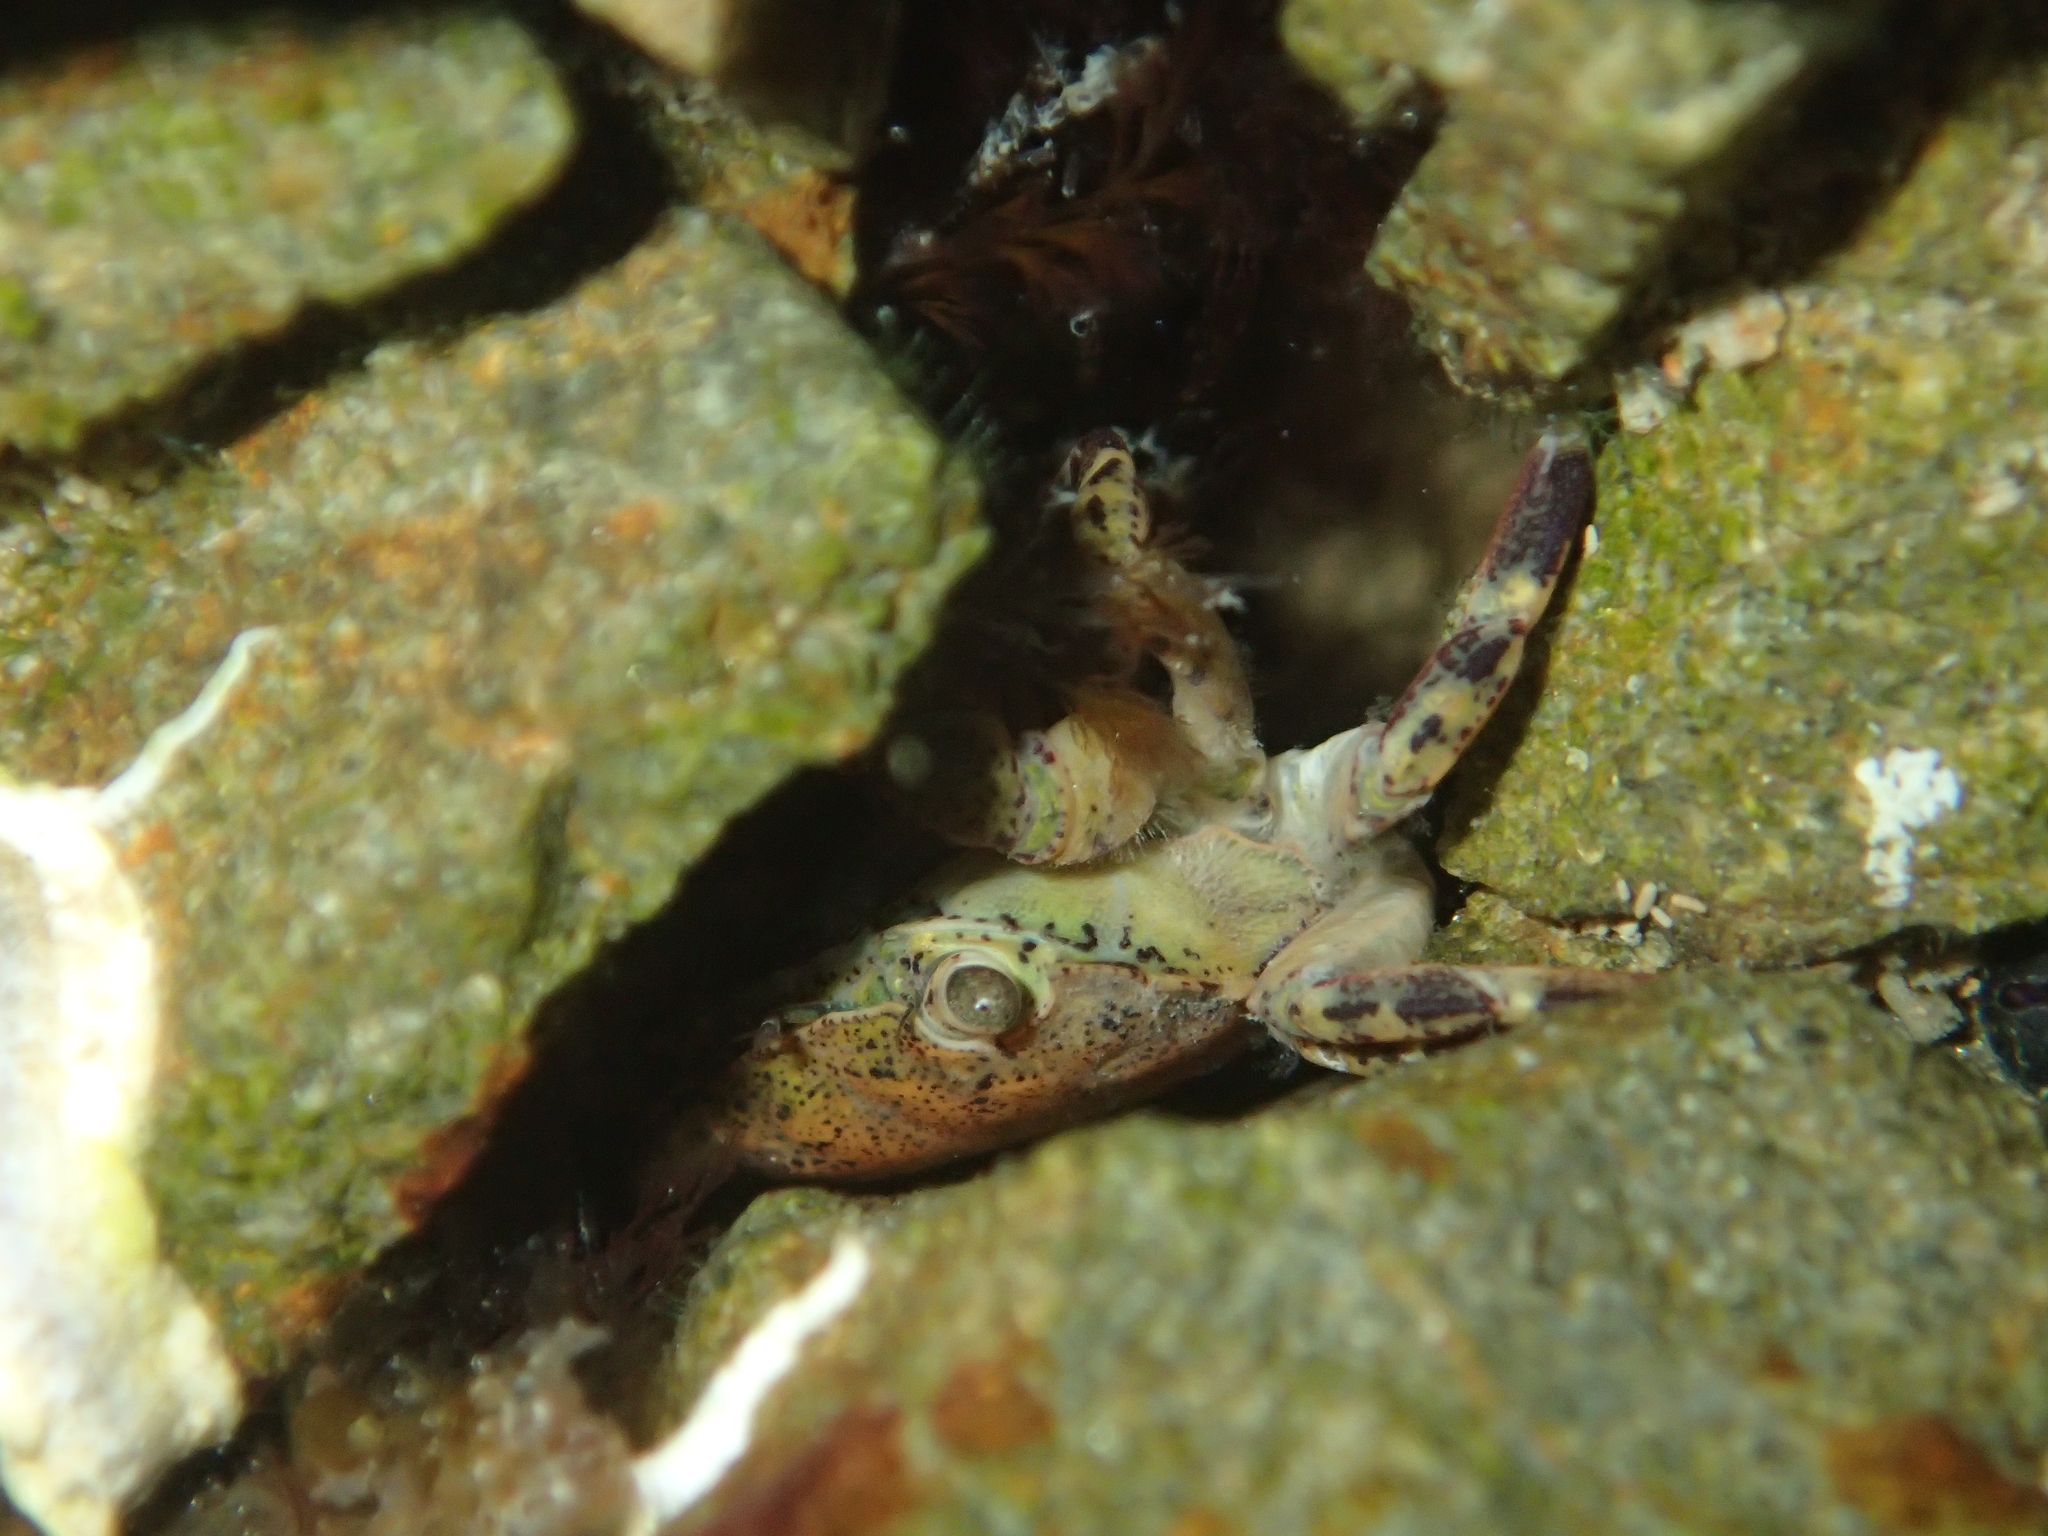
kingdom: Animalia
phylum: Arthropoda
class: Malacostraca
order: Decapoda
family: Varunidae
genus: Hemigrapsus
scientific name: Hemigrapsus sexdentatus
